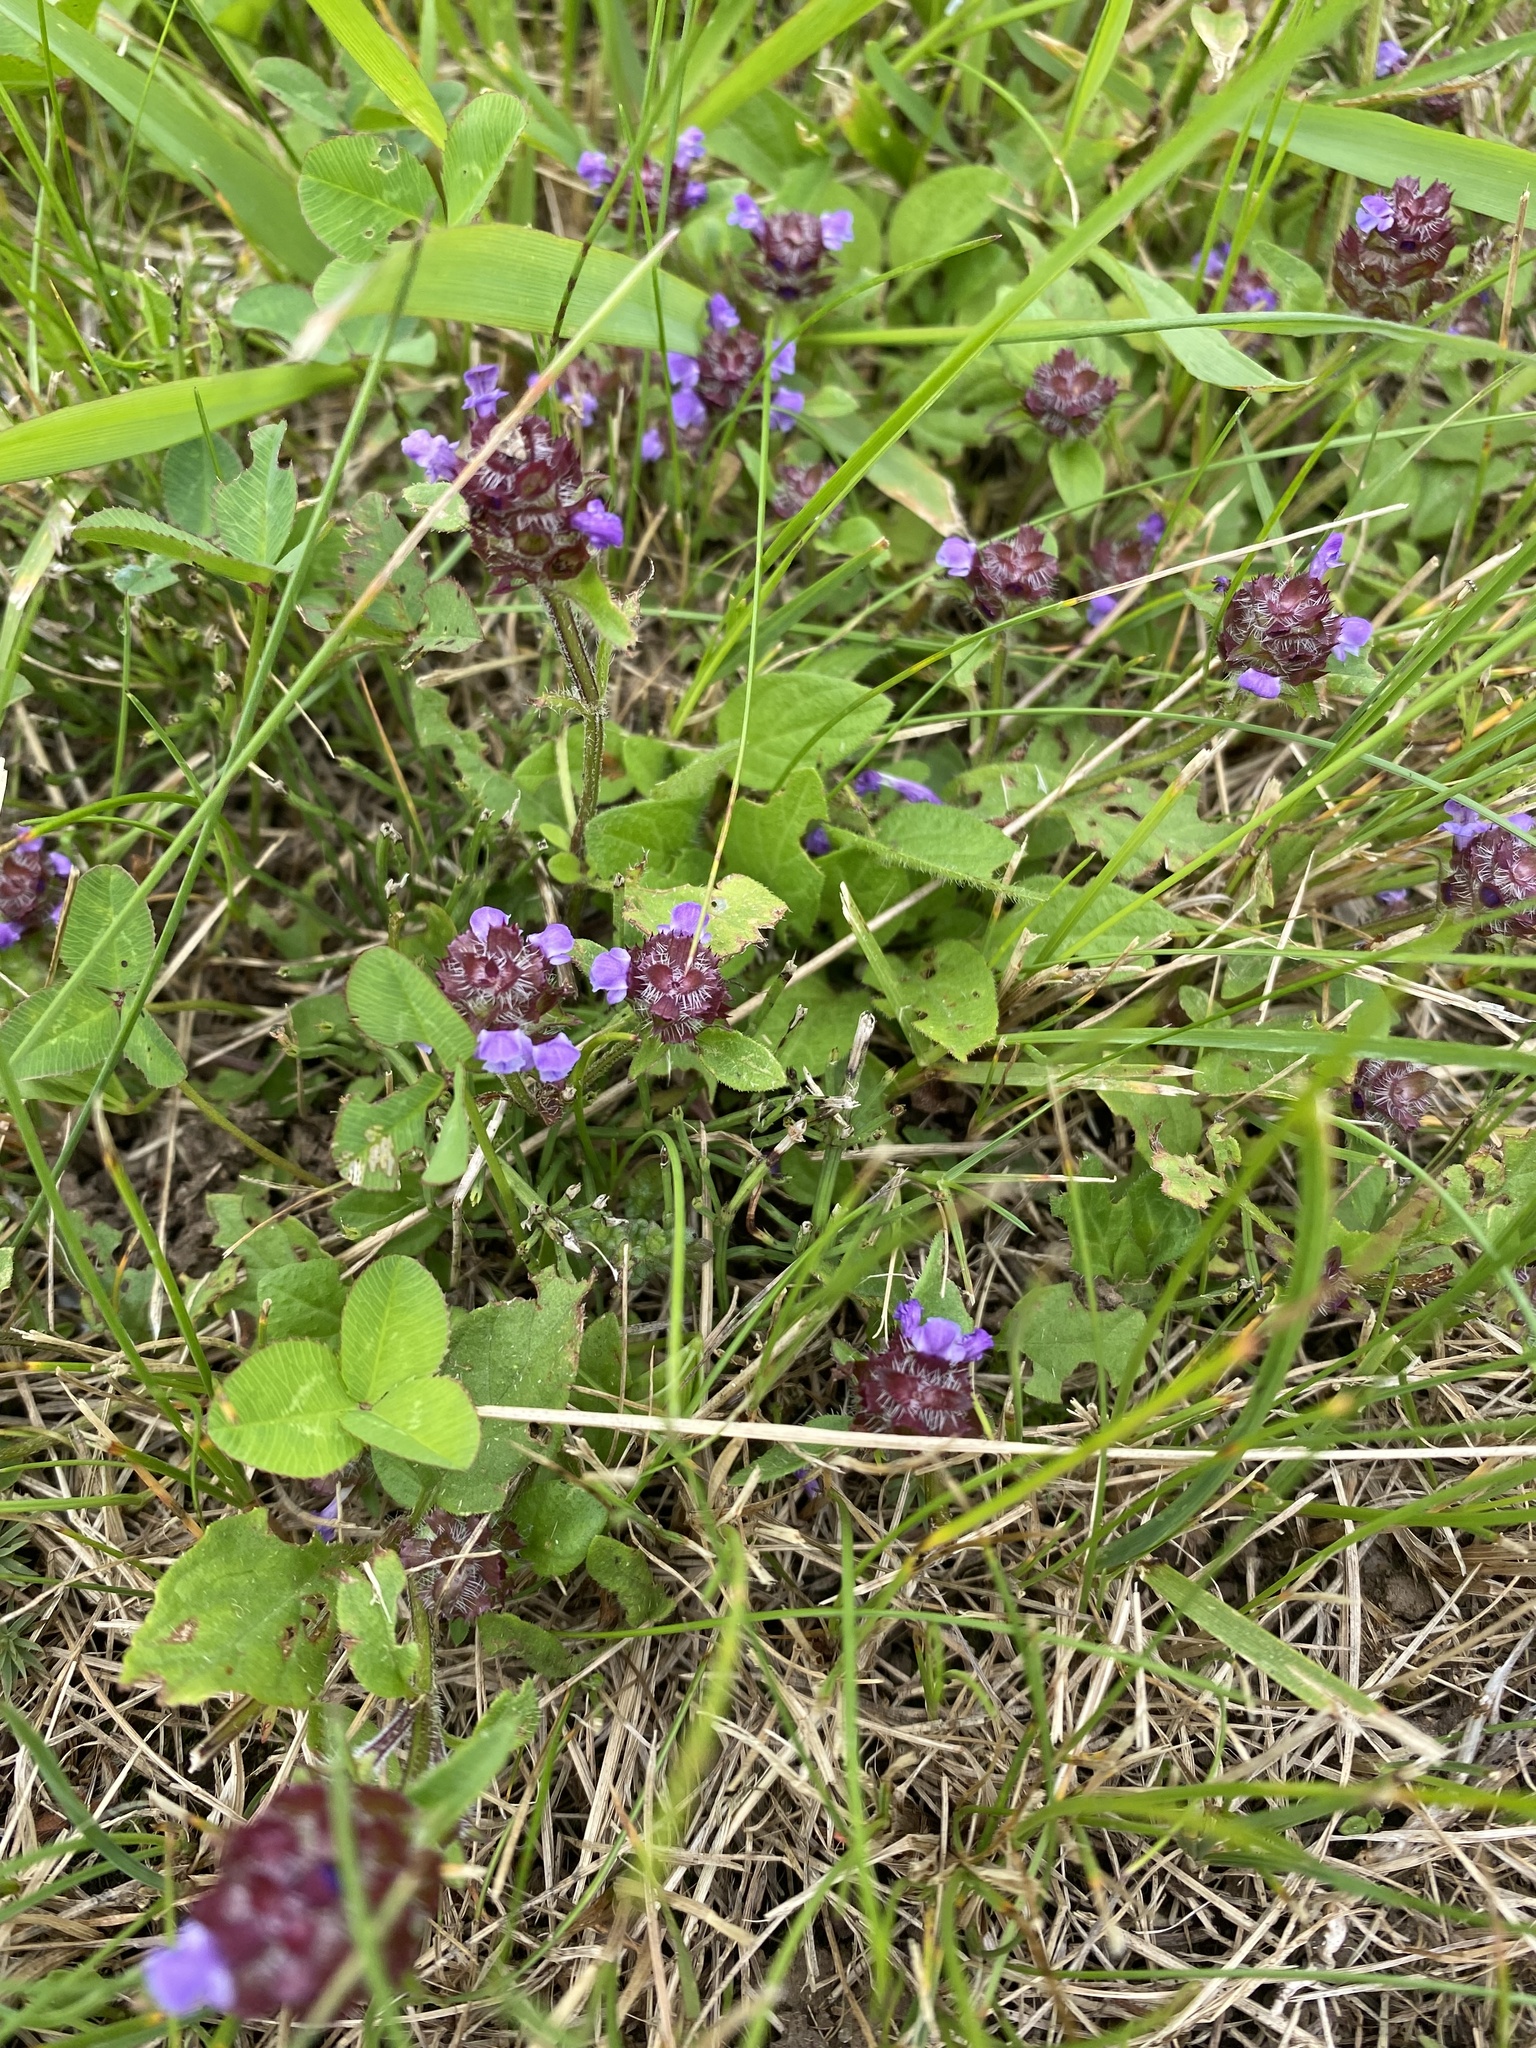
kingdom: Plantae
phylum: Tracheophyta
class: Magnoliopsida
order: Lamiales
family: Lamiaceae
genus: Prunella
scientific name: Prunella vulgaris
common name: Heal-all
